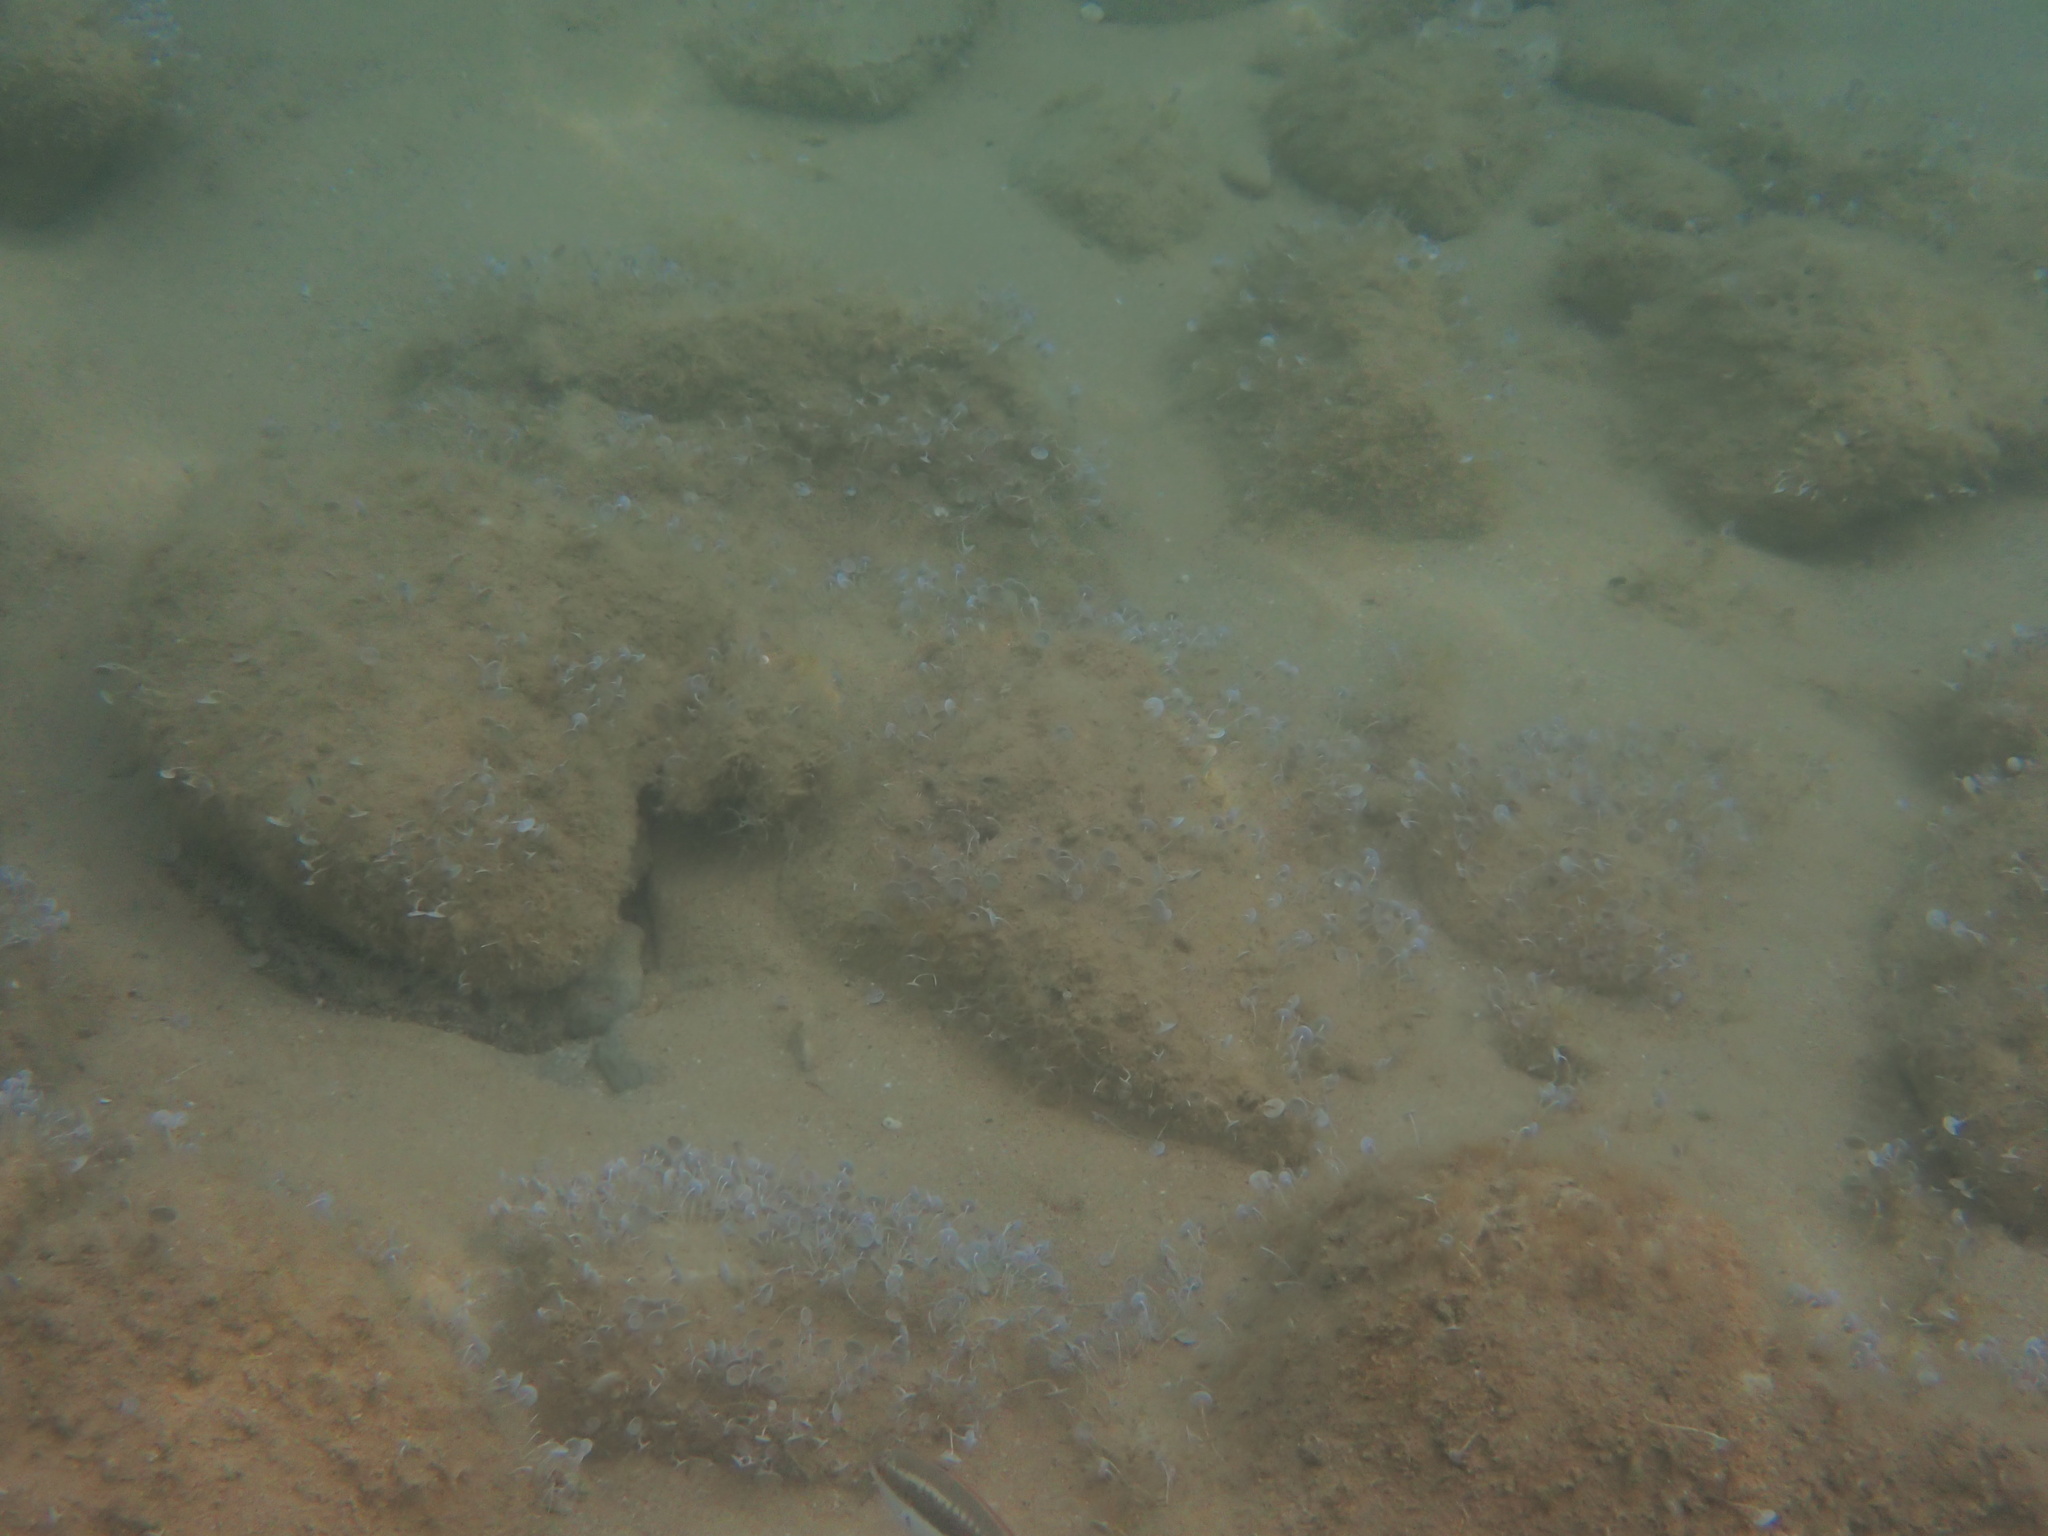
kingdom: Animalia
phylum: Chordata
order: Perciformes
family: Labridae
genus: Coris
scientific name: Coris julis
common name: Rainbow wrasse
